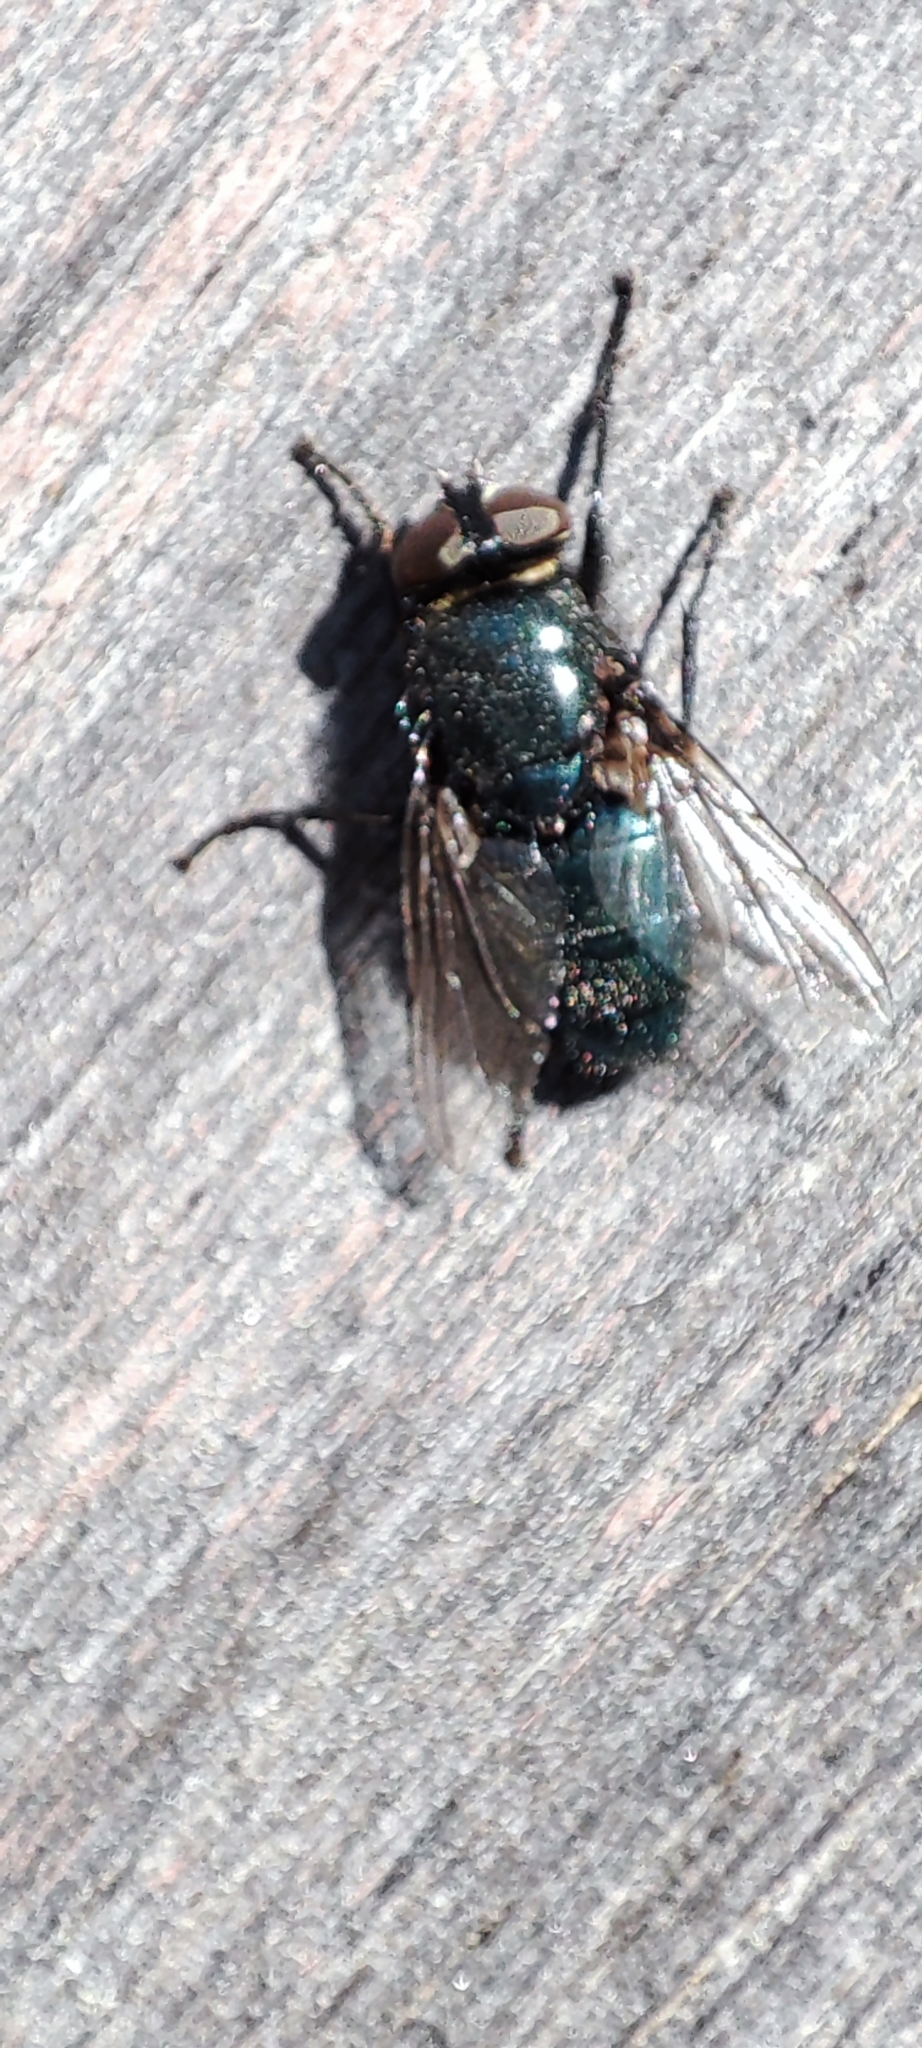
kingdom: Animalia
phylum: Arthropoda
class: Insecta
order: Diptera
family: Calliphoridae
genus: Protophormia
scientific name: Protophormia terraenovae
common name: Blackbottle
